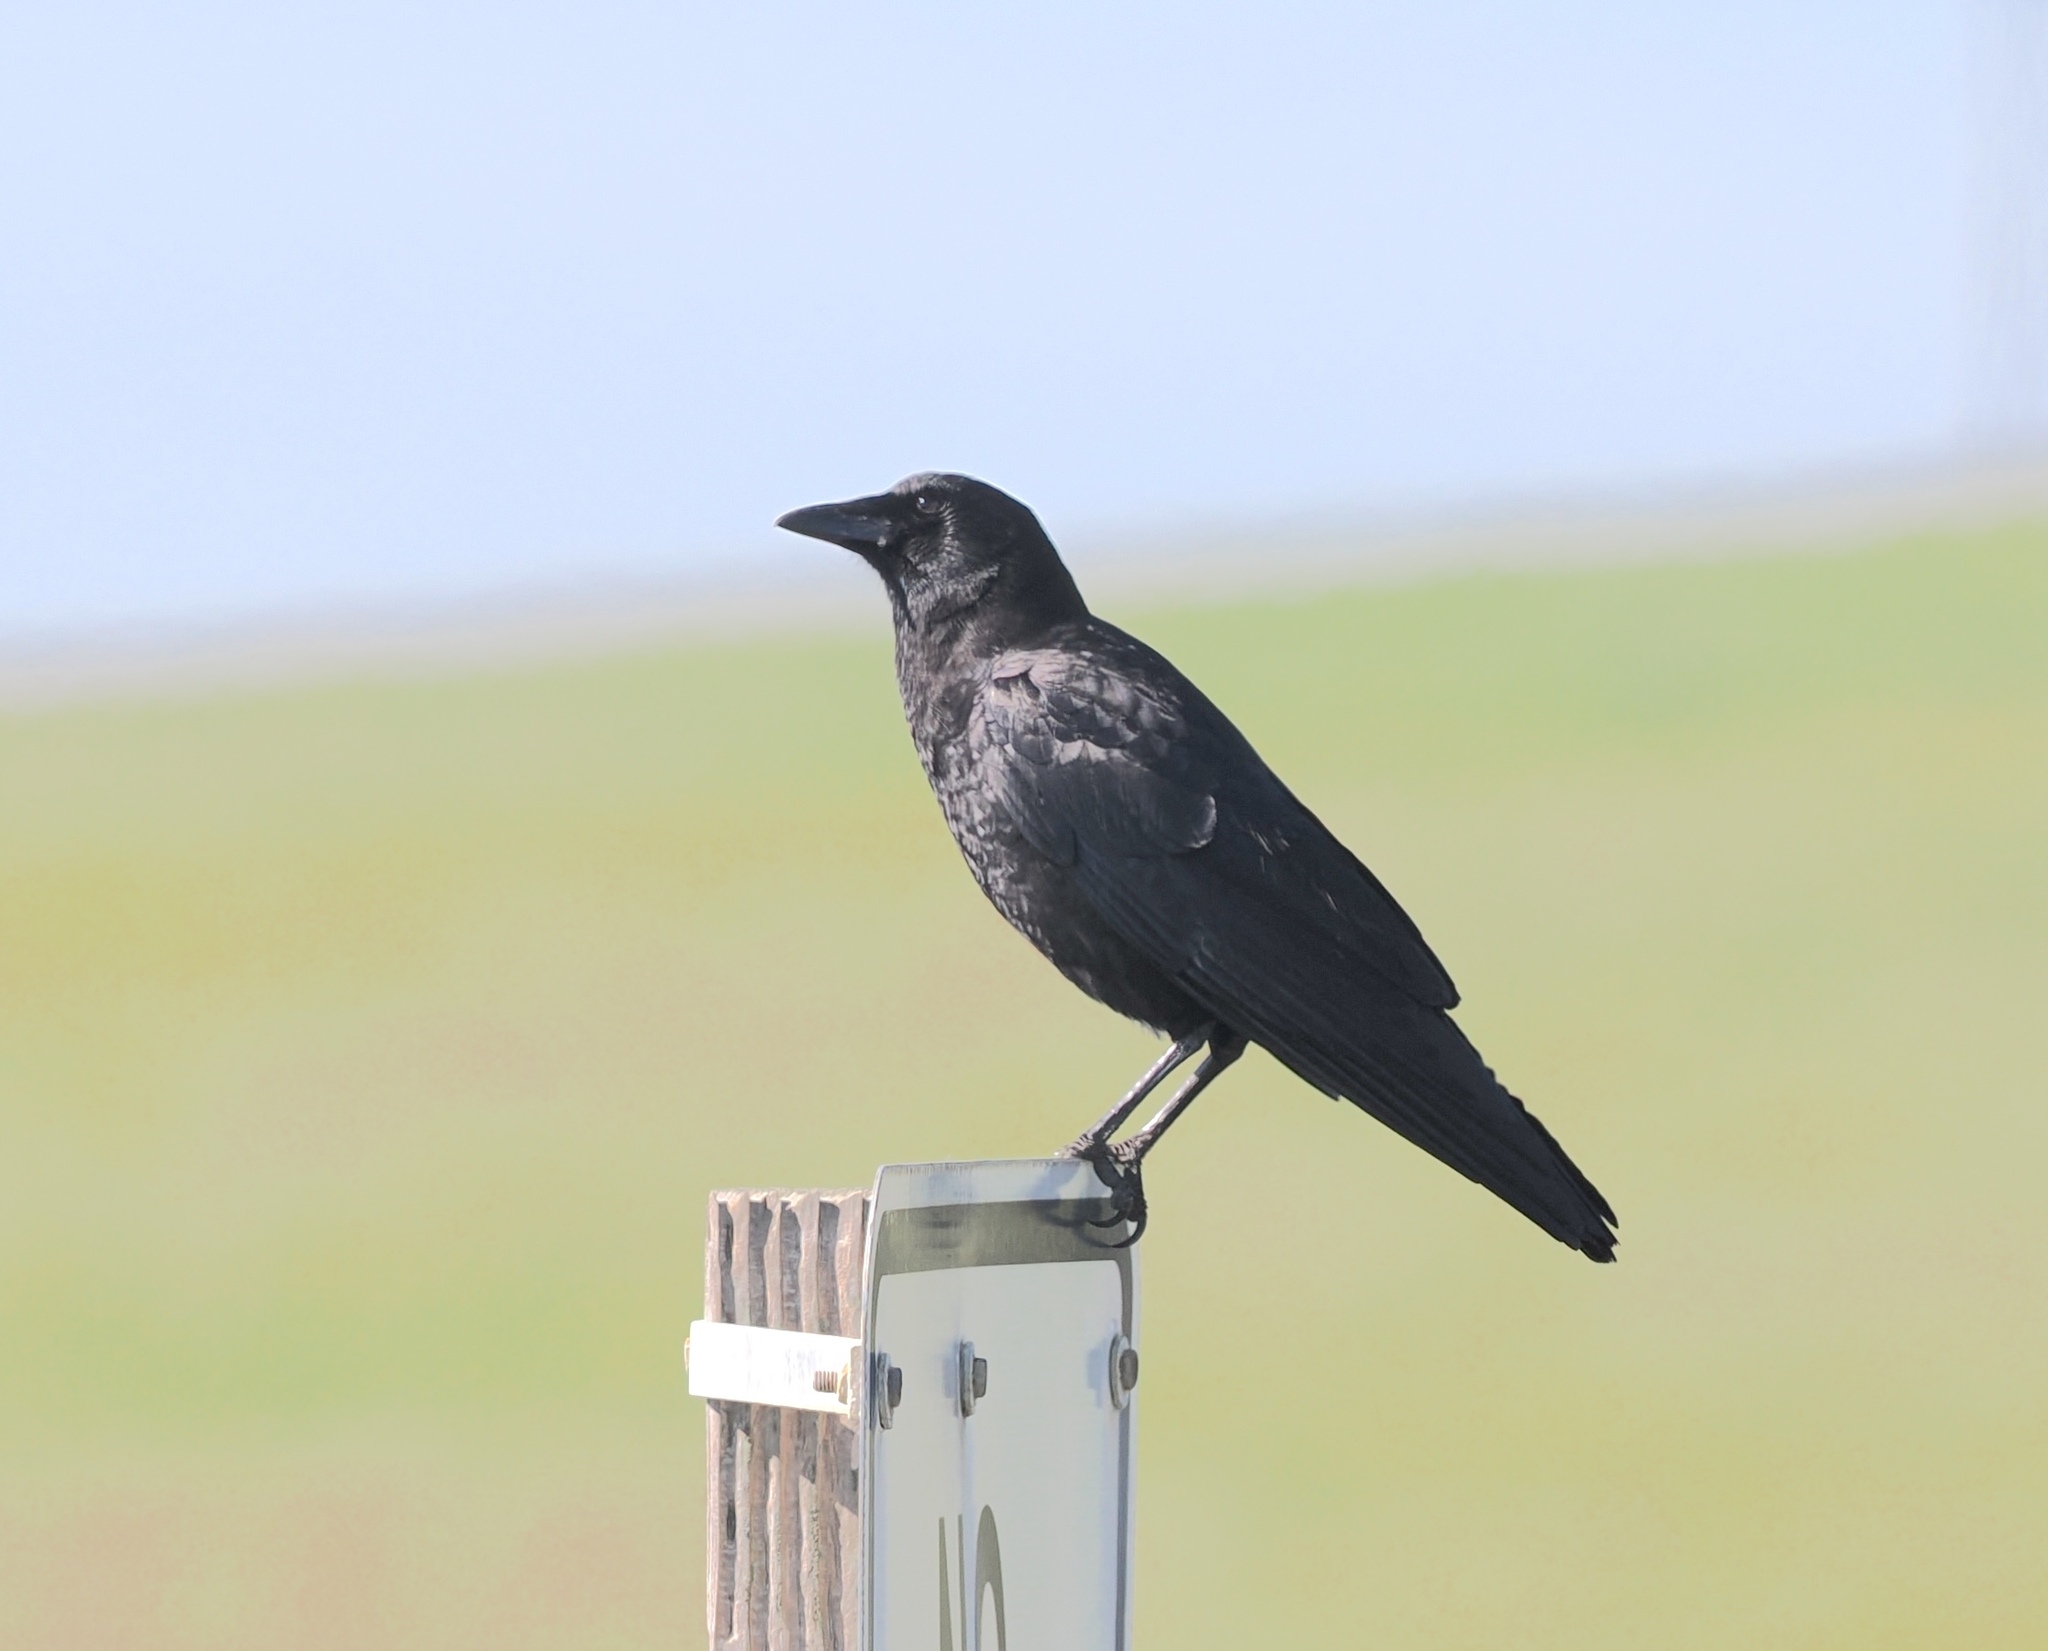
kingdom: Animalia
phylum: Chordata
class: Aves
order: Passeriformes
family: Corvidae
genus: Corvus
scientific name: Corvus brachyrhynchos
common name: American crow
